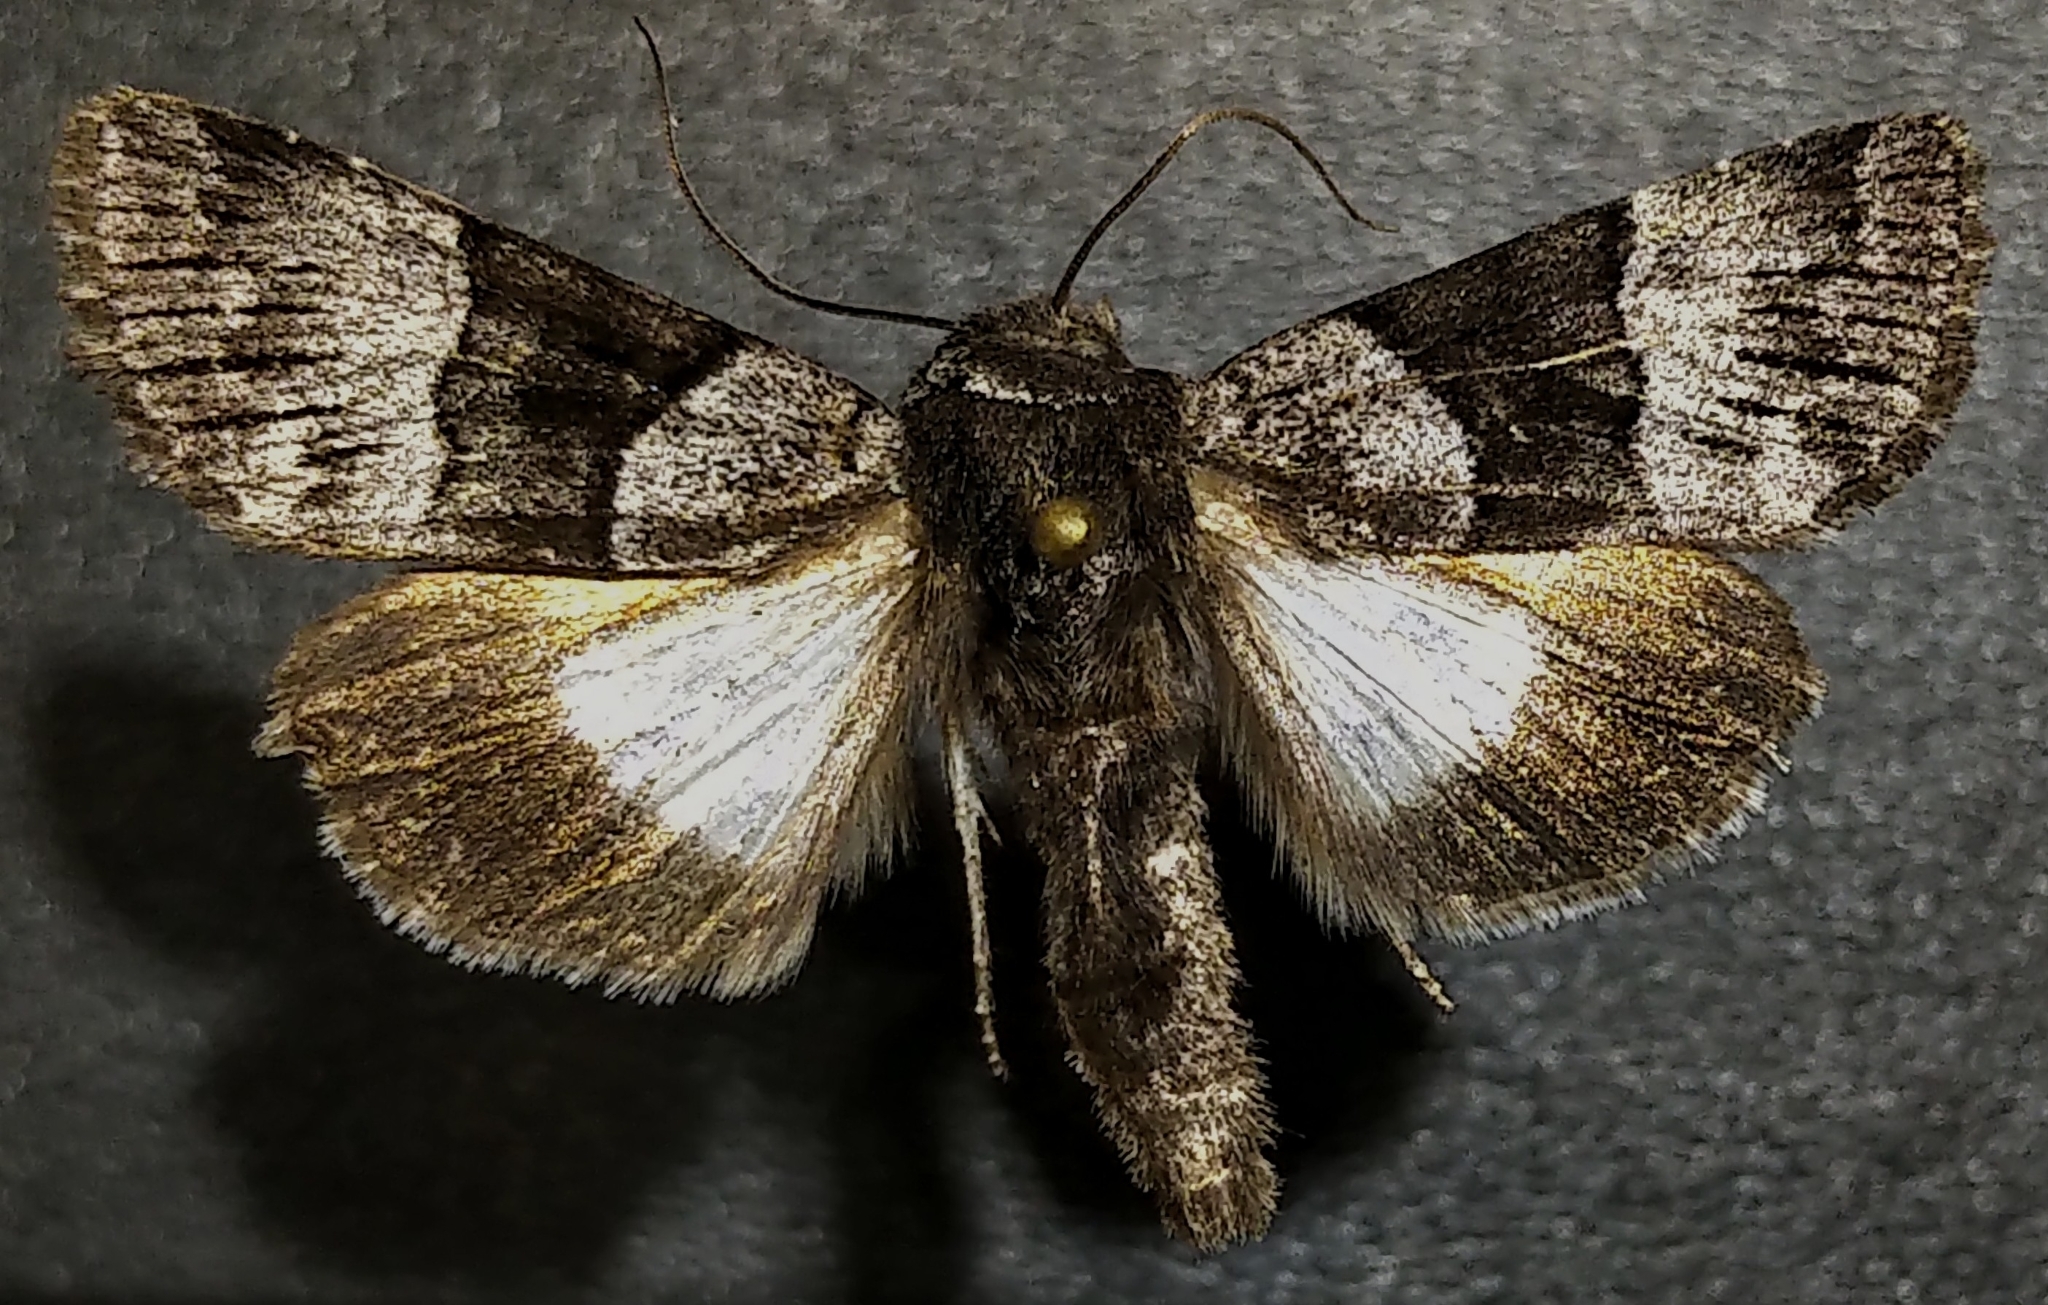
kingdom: Animalia
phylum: Arthropoda
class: Insecta
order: Lepidoptera
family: Noctuidae
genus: Sympistis
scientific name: Sympistis chalybdis
